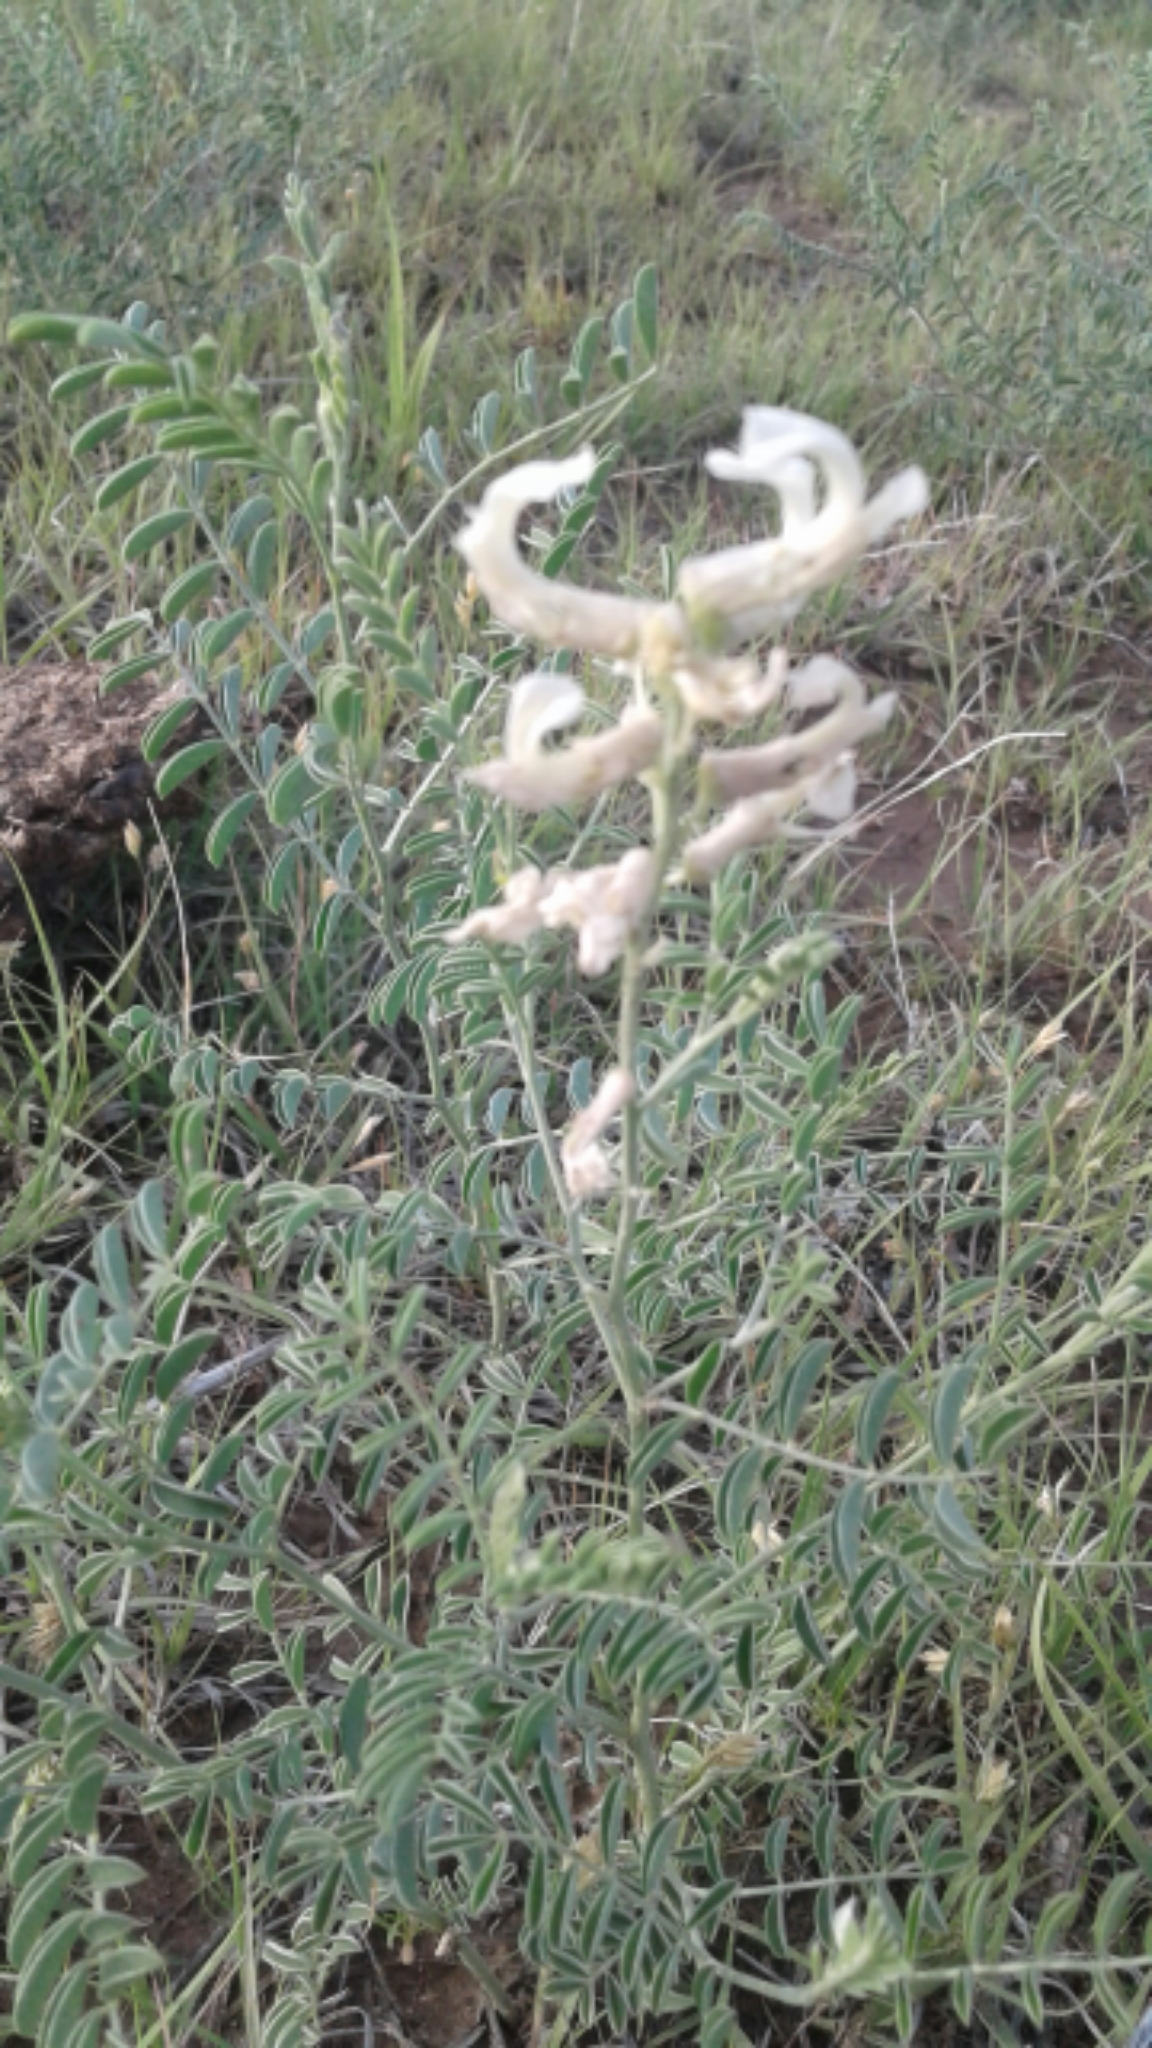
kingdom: Plantae
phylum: Tracheophyta
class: Magnoliopsida
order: Fabales
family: Fabaceae
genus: Sophora
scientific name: Sophora nuttalliana
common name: Silky sophora
